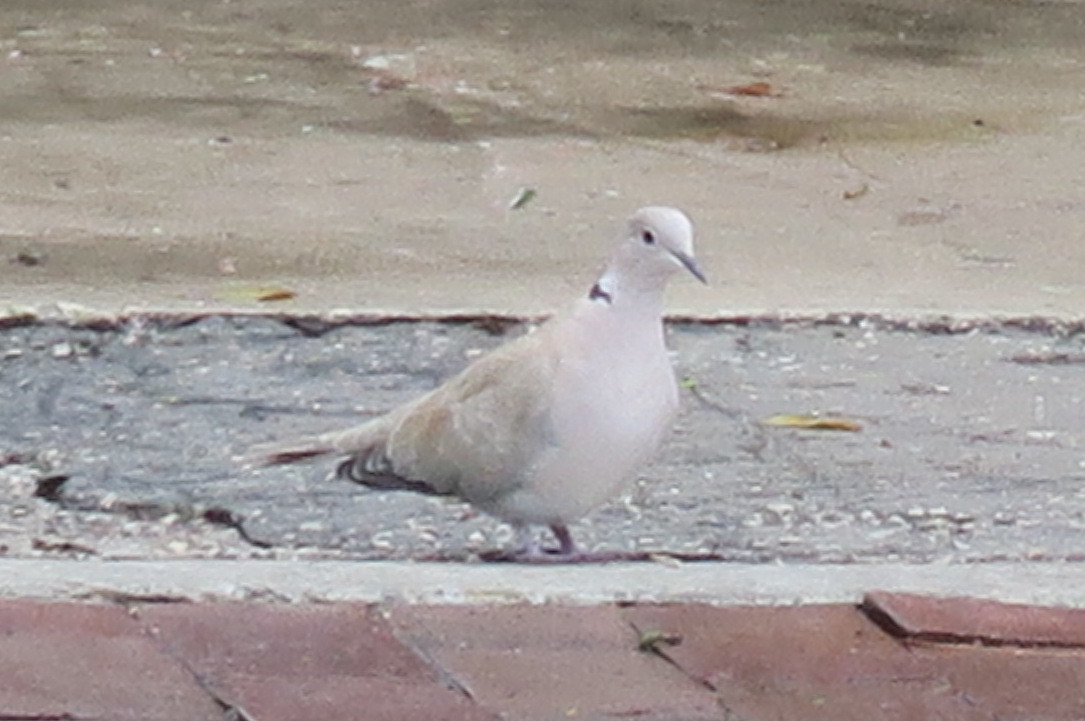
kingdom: Animalia
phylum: Chordata
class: Aves
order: Columbiformes
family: Columbidae
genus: Streptopelia
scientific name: Streptopelia decaocto
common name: Eurasian collared dove
